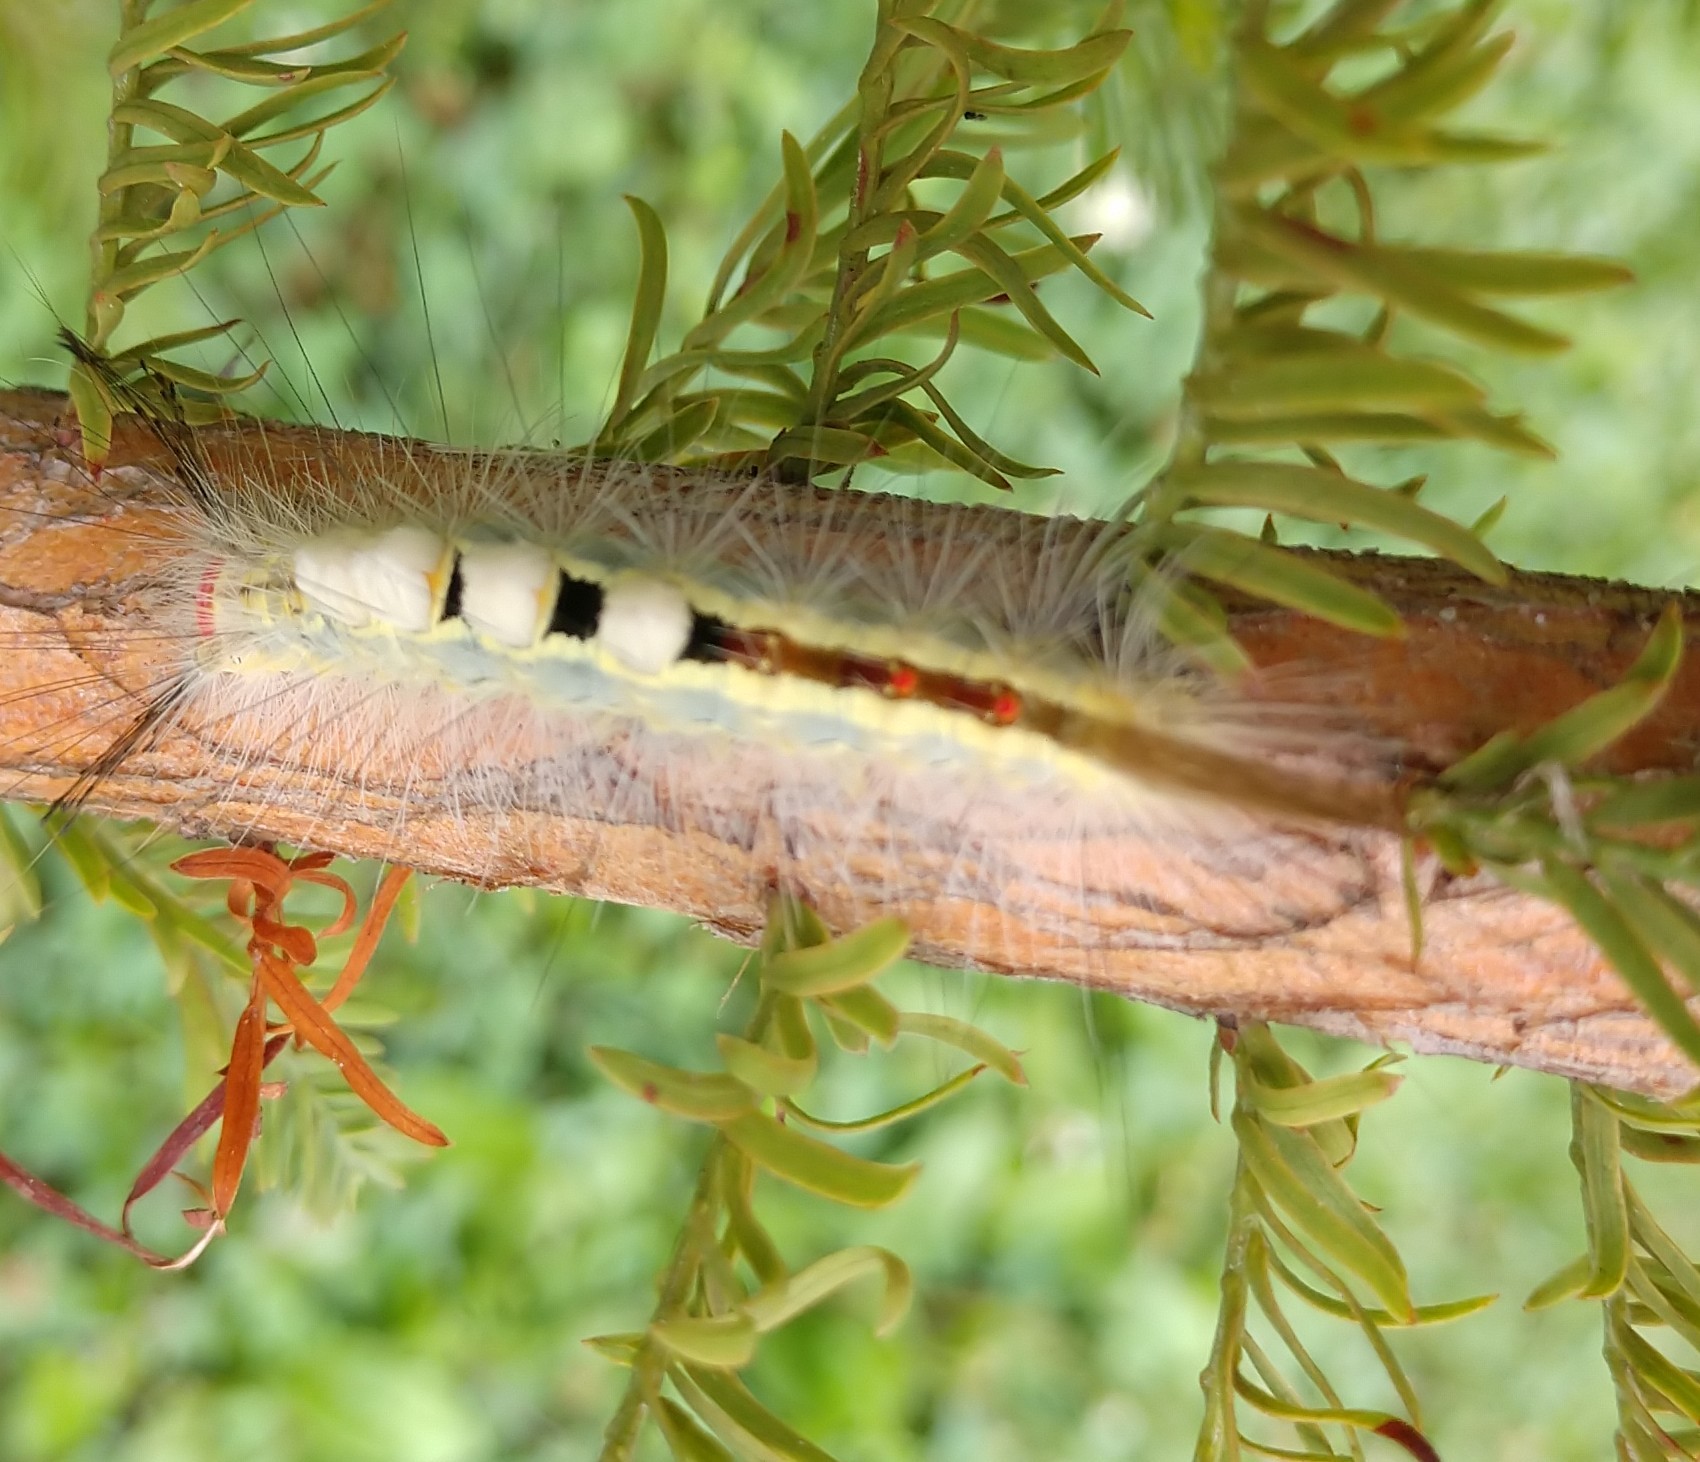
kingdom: Animalia
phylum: Arthropoda
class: Insecta
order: Lepidoptera
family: Erebidae
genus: Orgyia
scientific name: Orgyia leucostigma
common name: White-marked tussock moth
